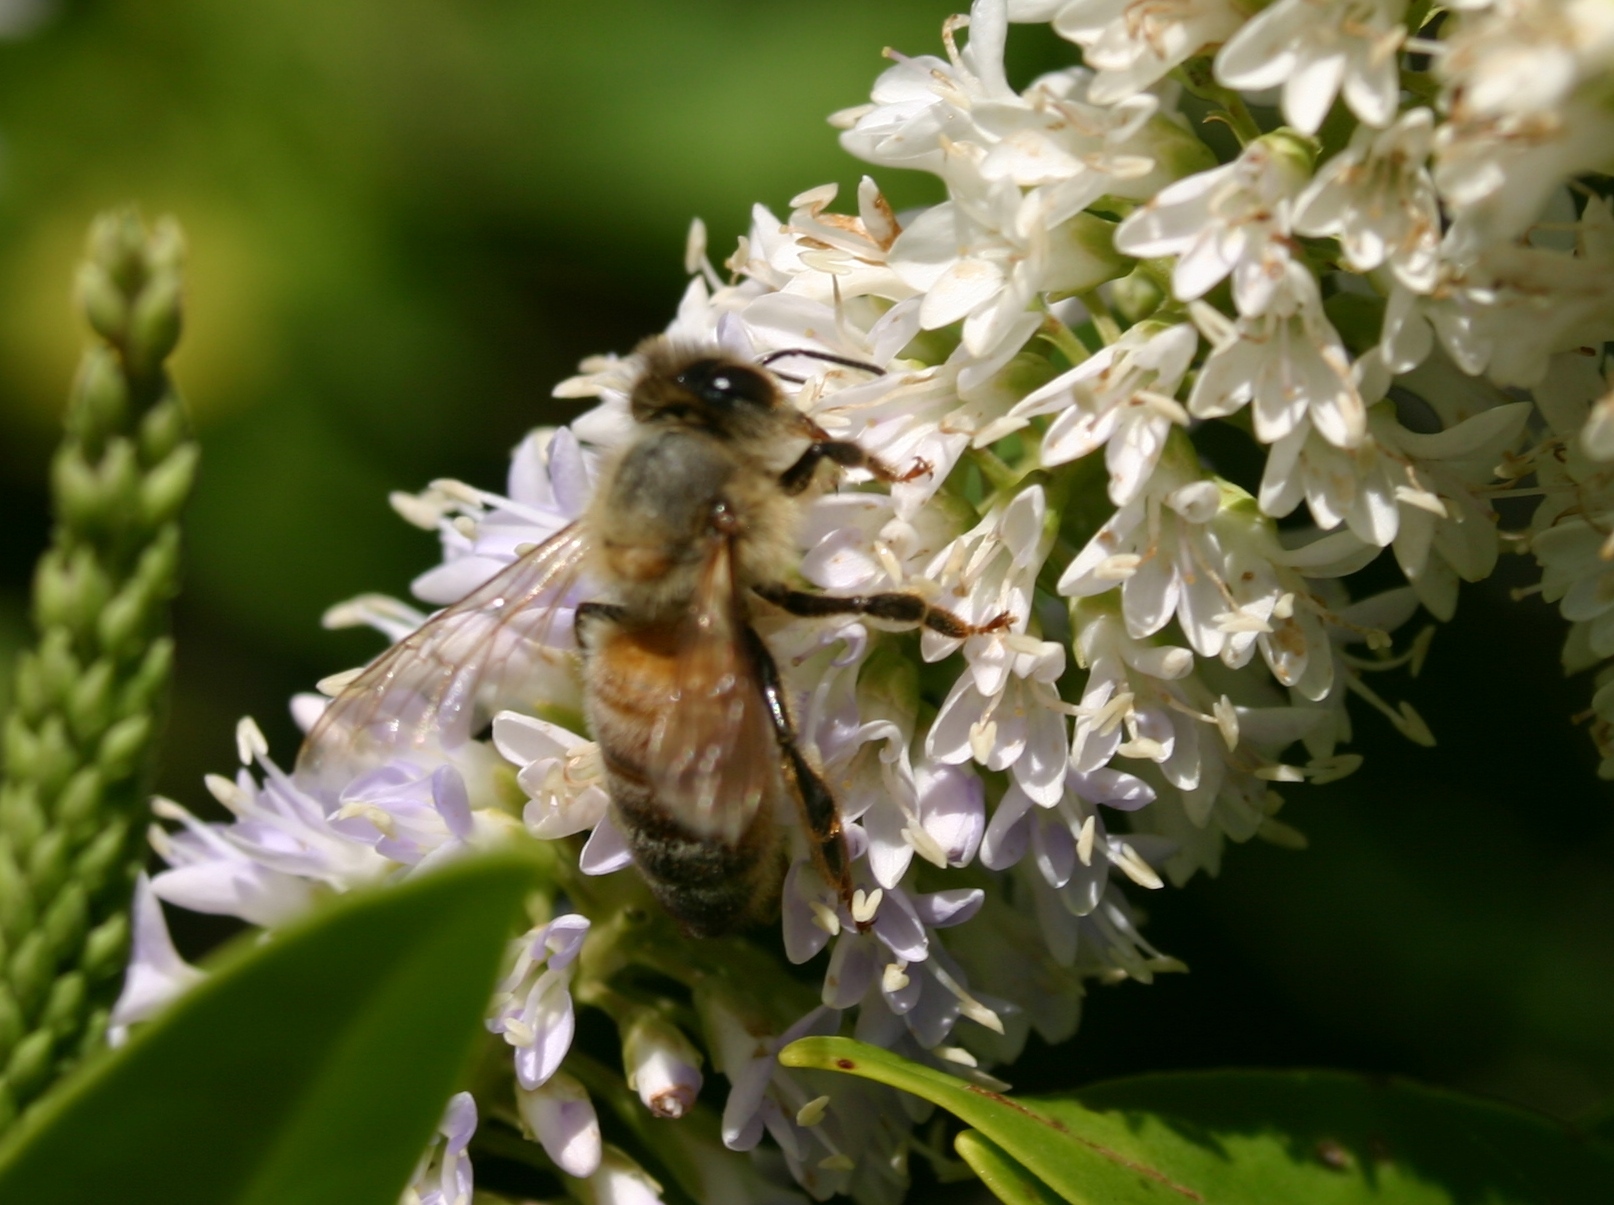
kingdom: Animalia
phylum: Arthropoda
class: Insecta
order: Hymenoptera
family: Apidae
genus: Apis
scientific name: Apis mellifera
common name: Honey bee
